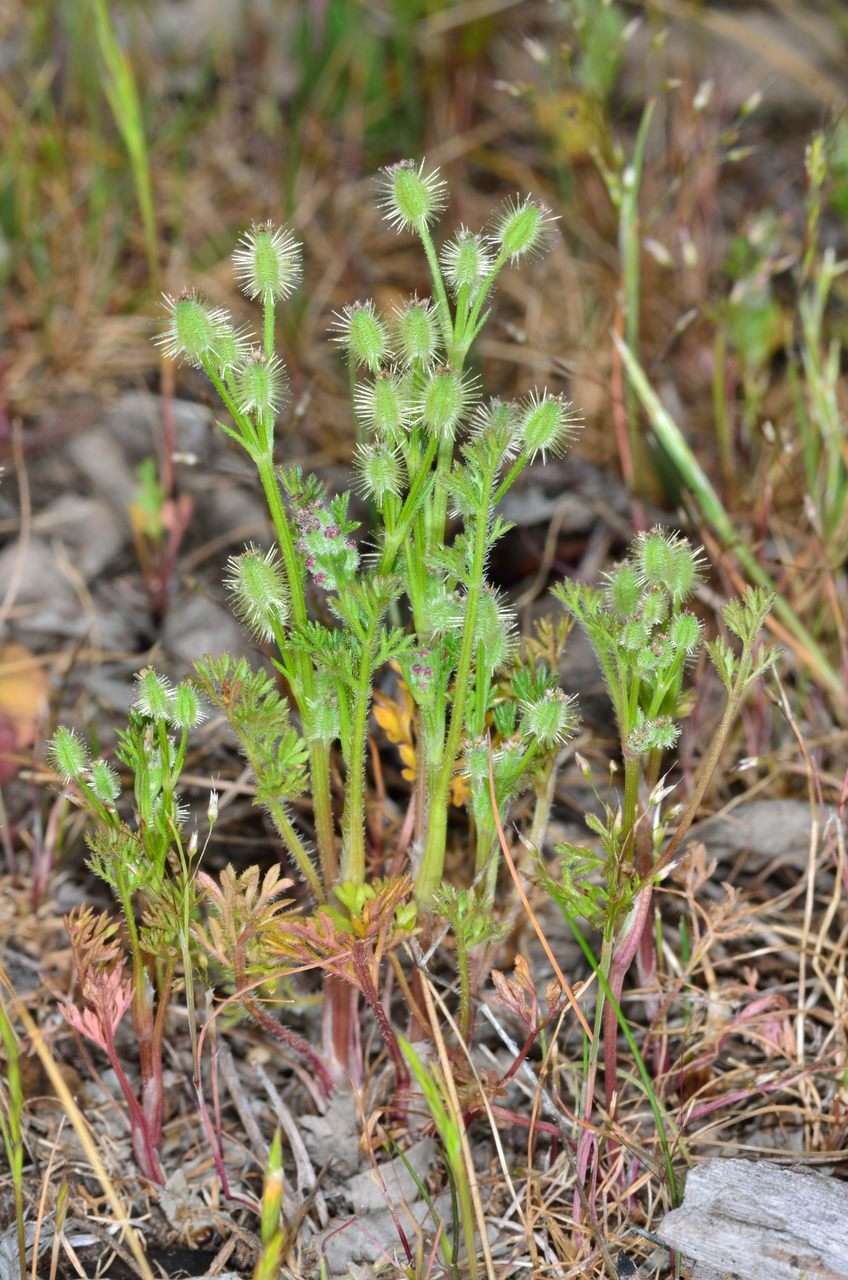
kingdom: Plantae
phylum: Tracheophyta
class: Magnoliopsida
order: Apiales
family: Apiaceae
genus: Daucus
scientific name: Daucus glochidiatus
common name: Australian carrot
